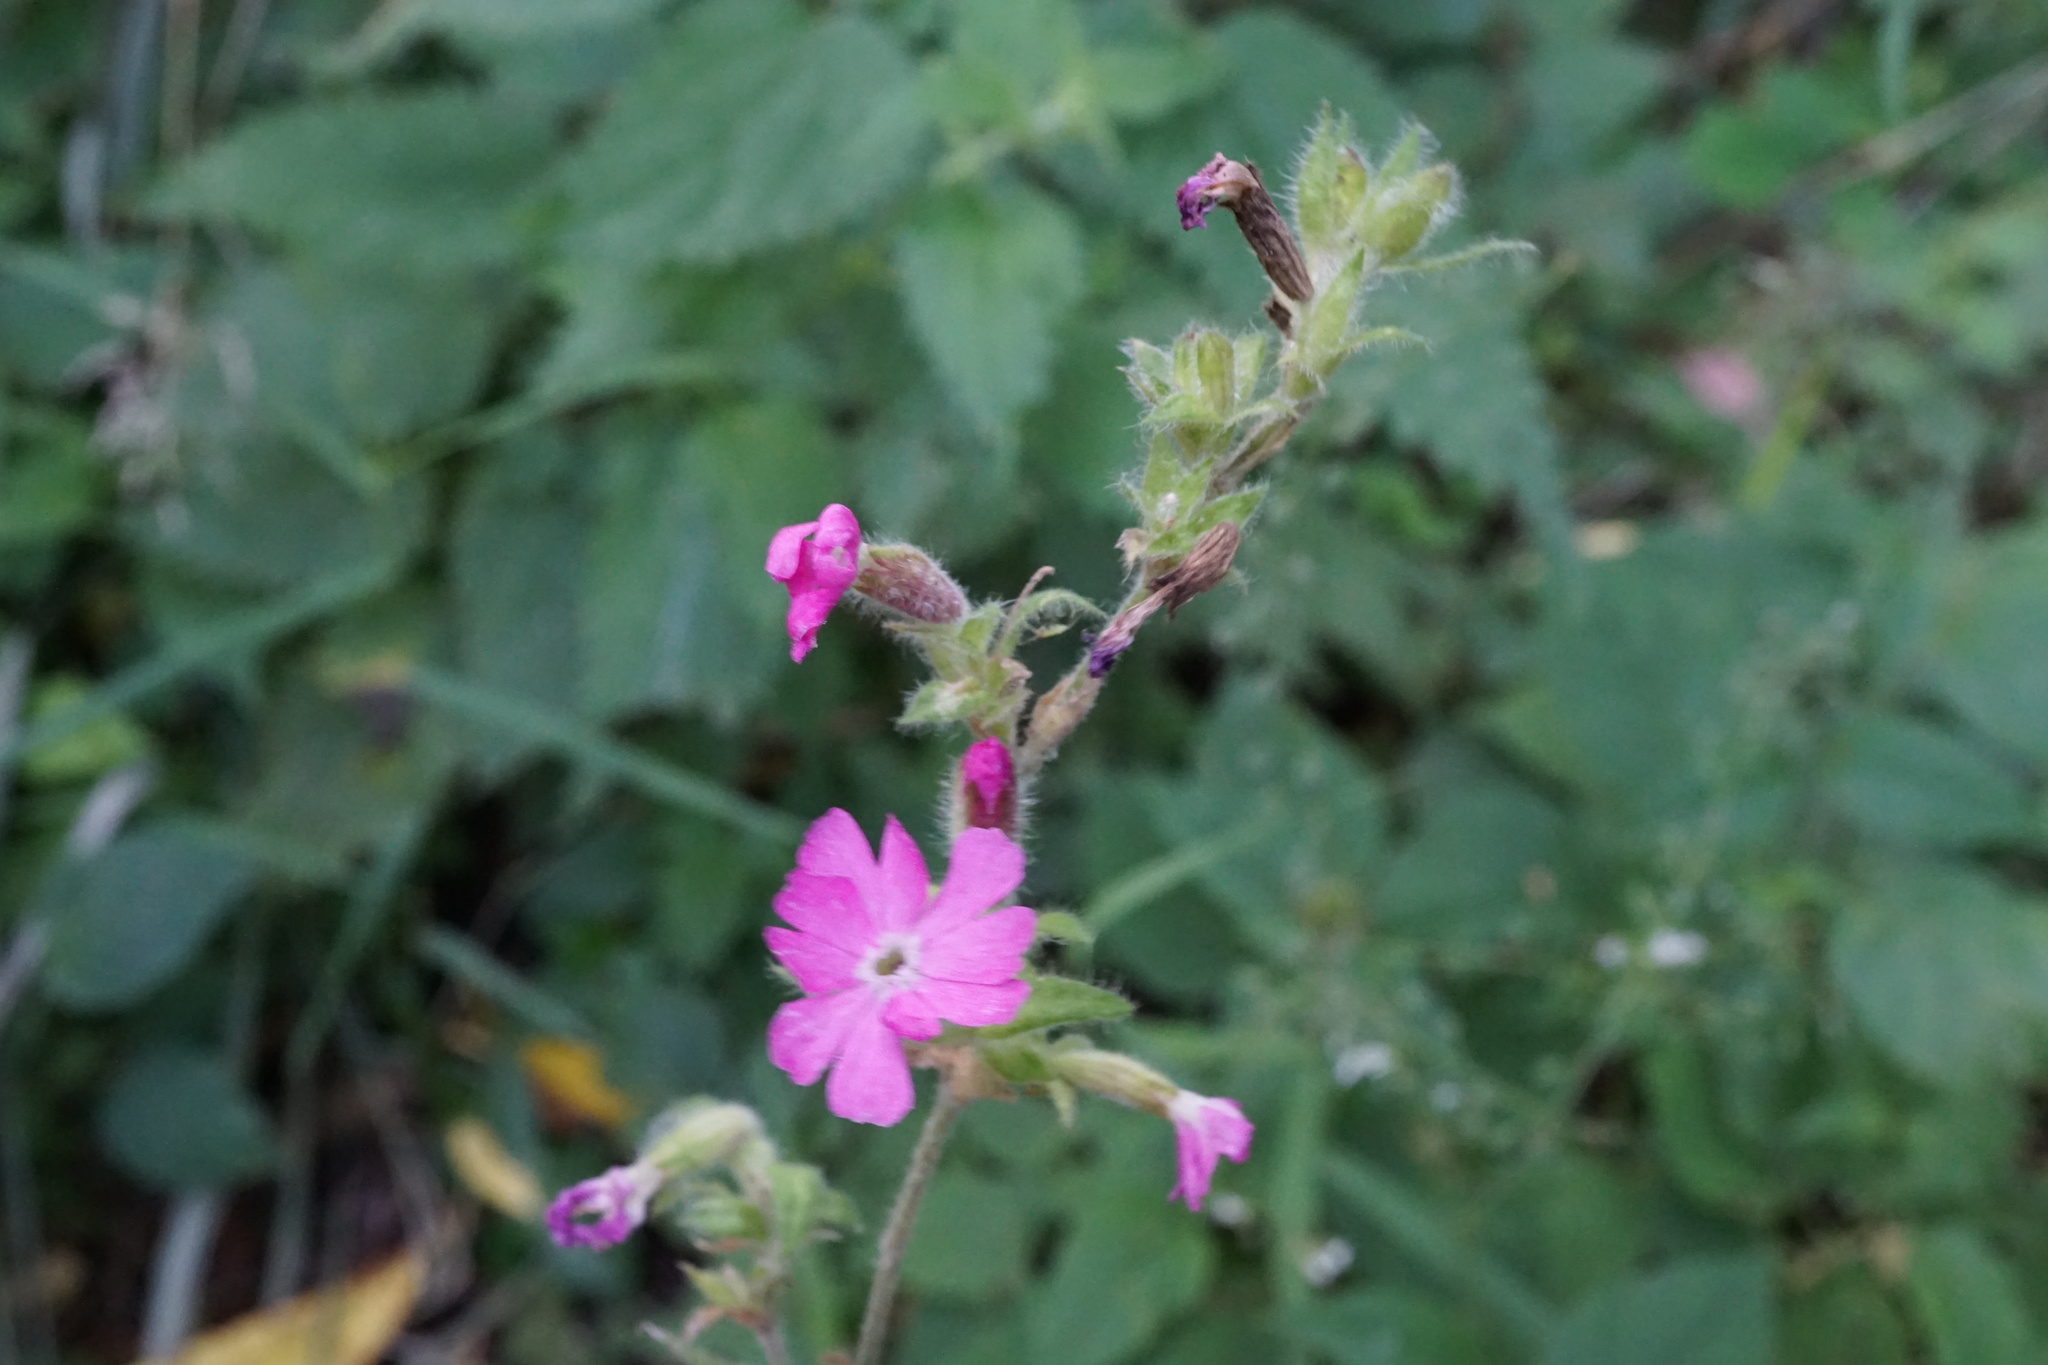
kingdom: Plantae
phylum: Tracheophyta
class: Magnoliopsida
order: Caryophyllales
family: Caryophyllaceae
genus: Silene
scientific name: Silene dioica
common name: Red campion
